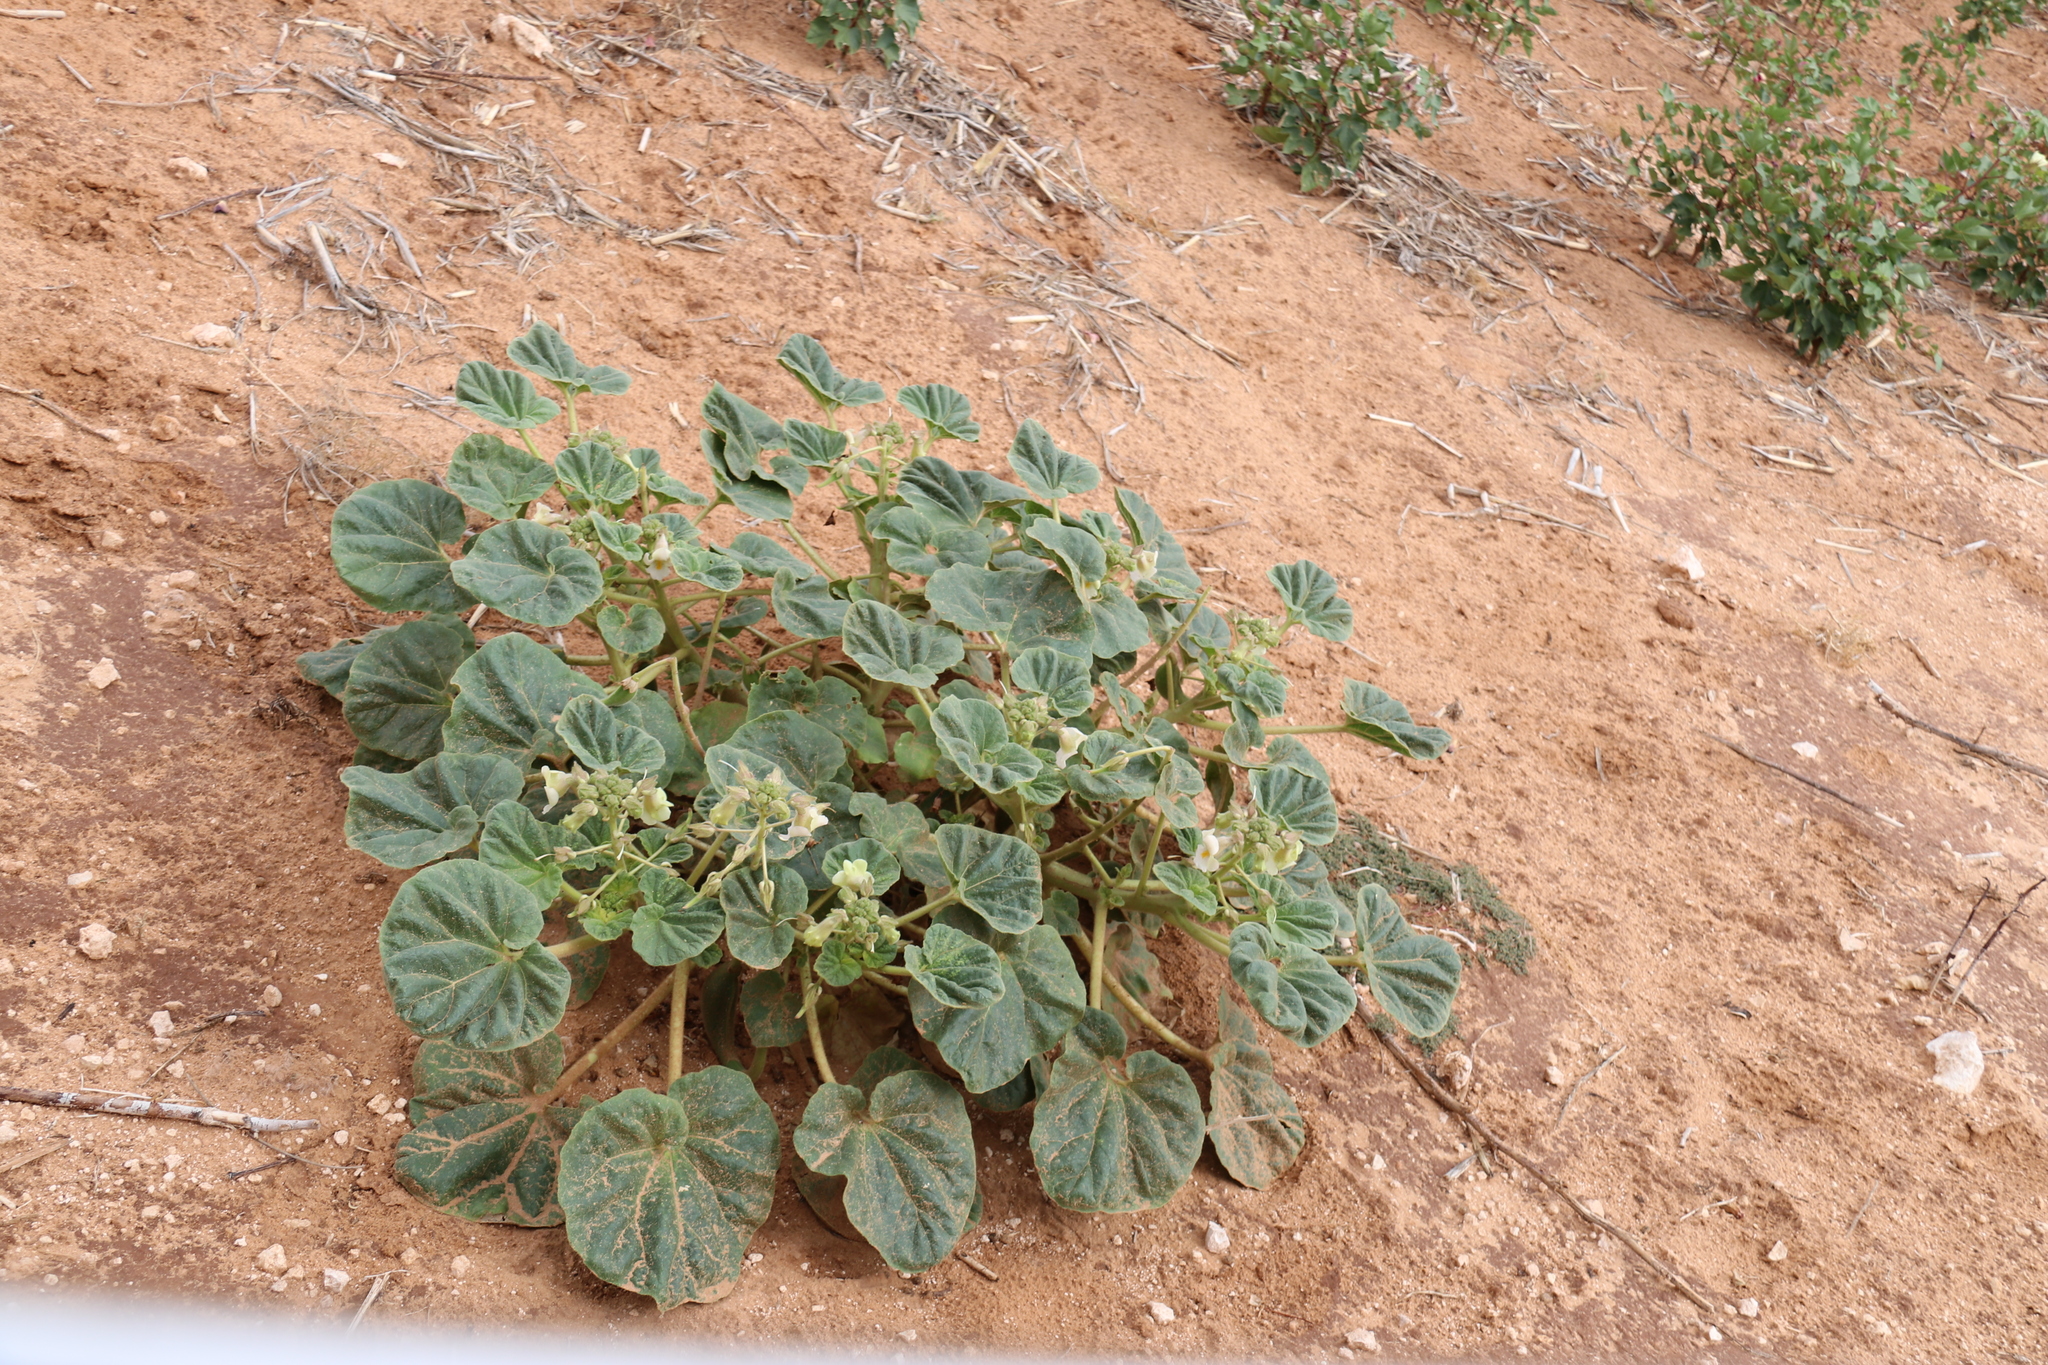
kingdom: Plantae
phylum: Tracheophyta
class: Magnoliopsida
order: Lamiales
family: Martyniaceae
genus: Proboscidea
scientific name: Proboscidea louisianica
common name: Elephant tusks
